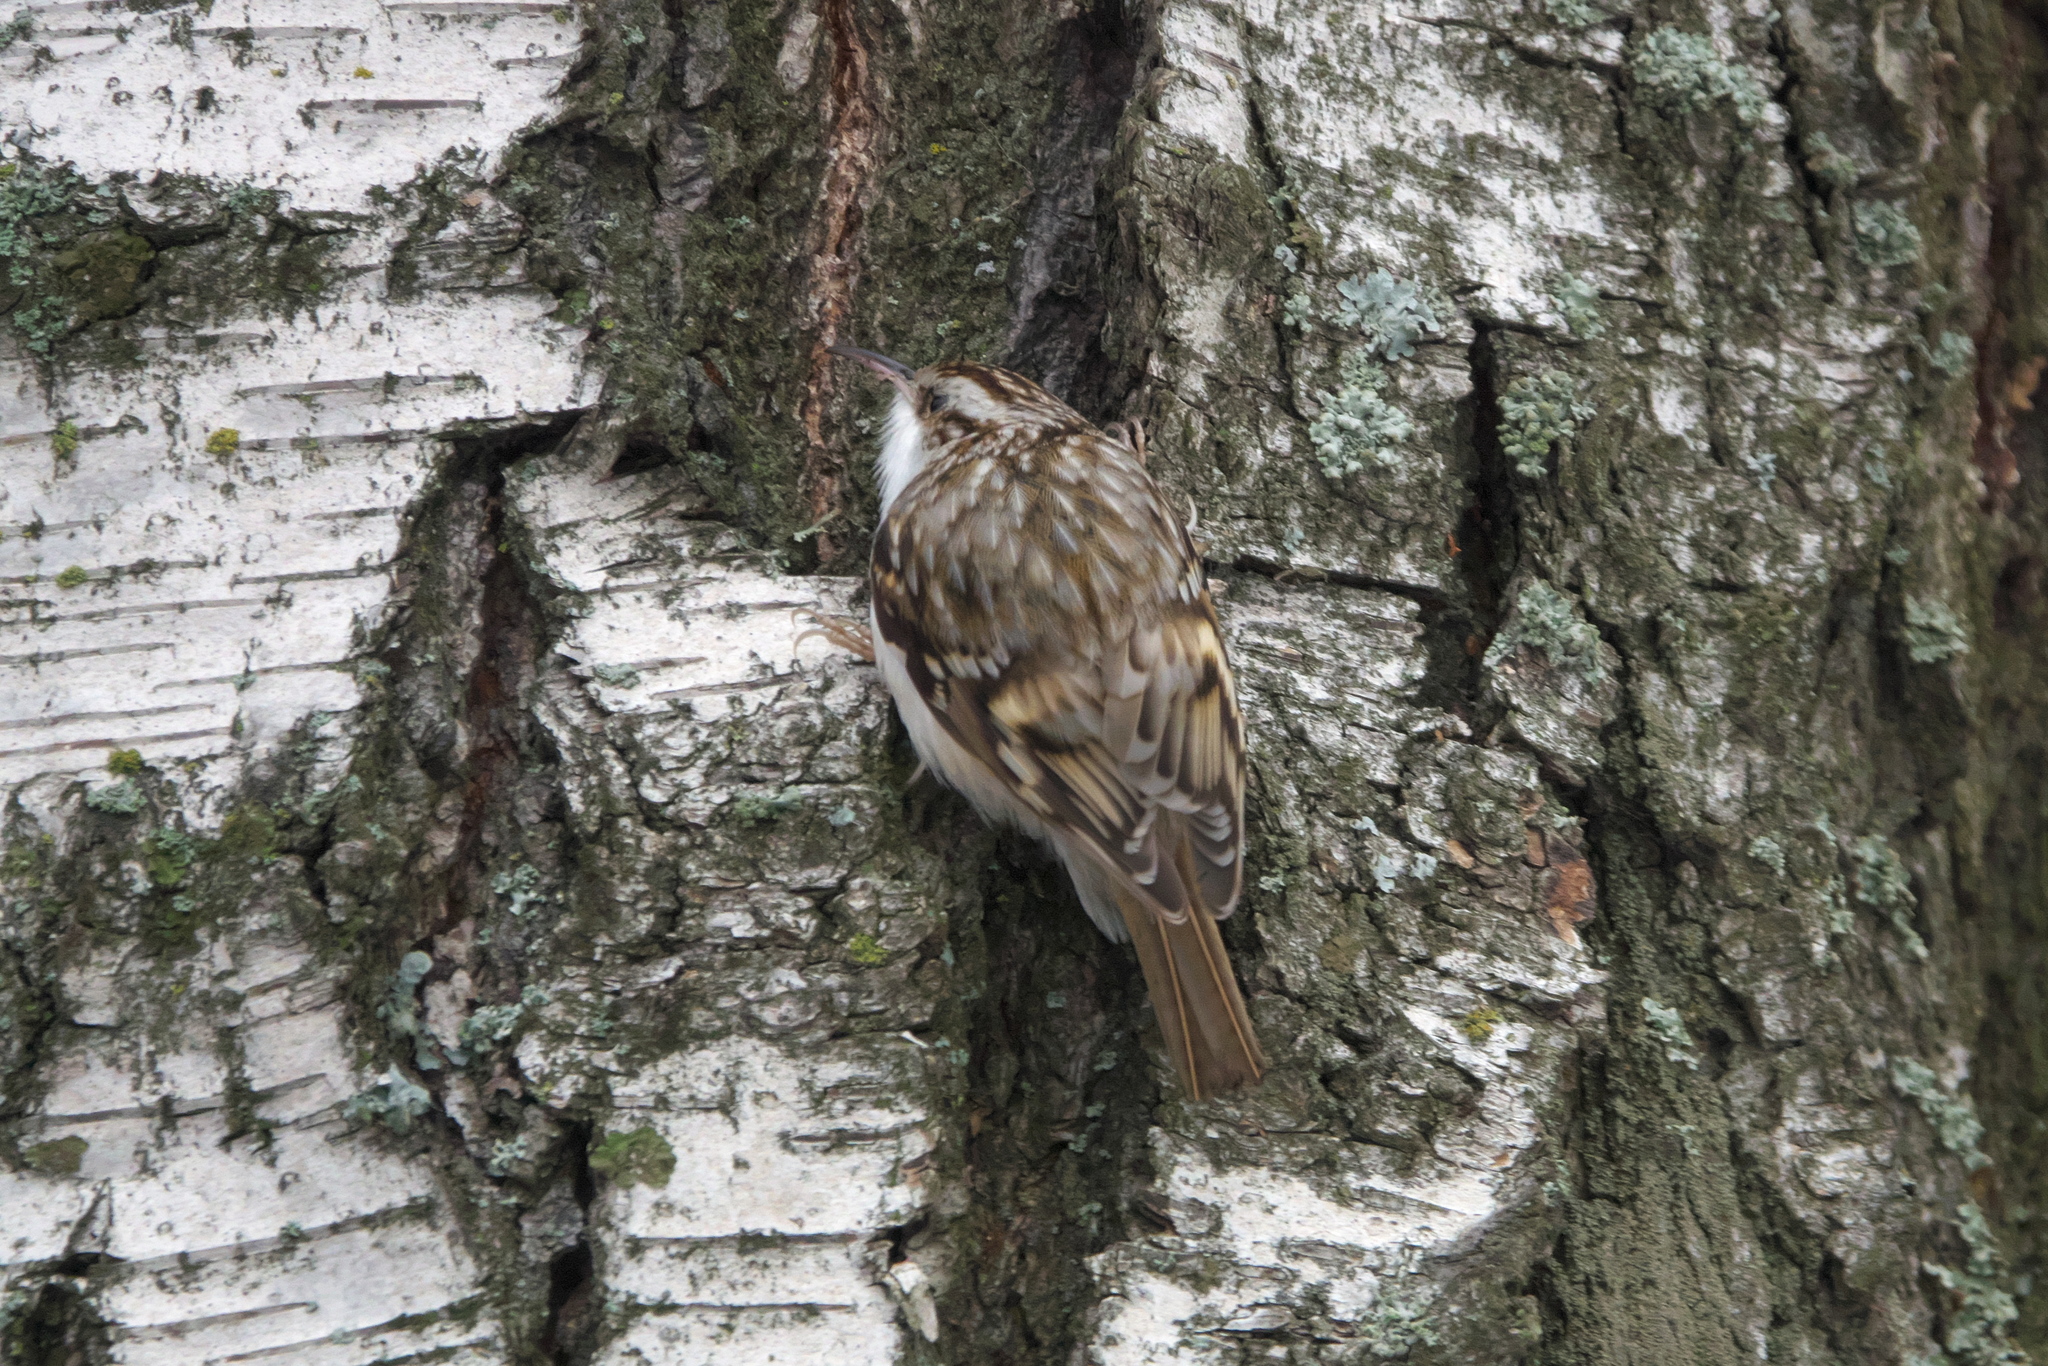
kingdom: Animalia
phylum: Chordata
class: Aves
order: Passeriformes
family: Certhiidae
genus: Certhia
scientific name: Certhia familiaris
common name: Eurasian treecreeper
